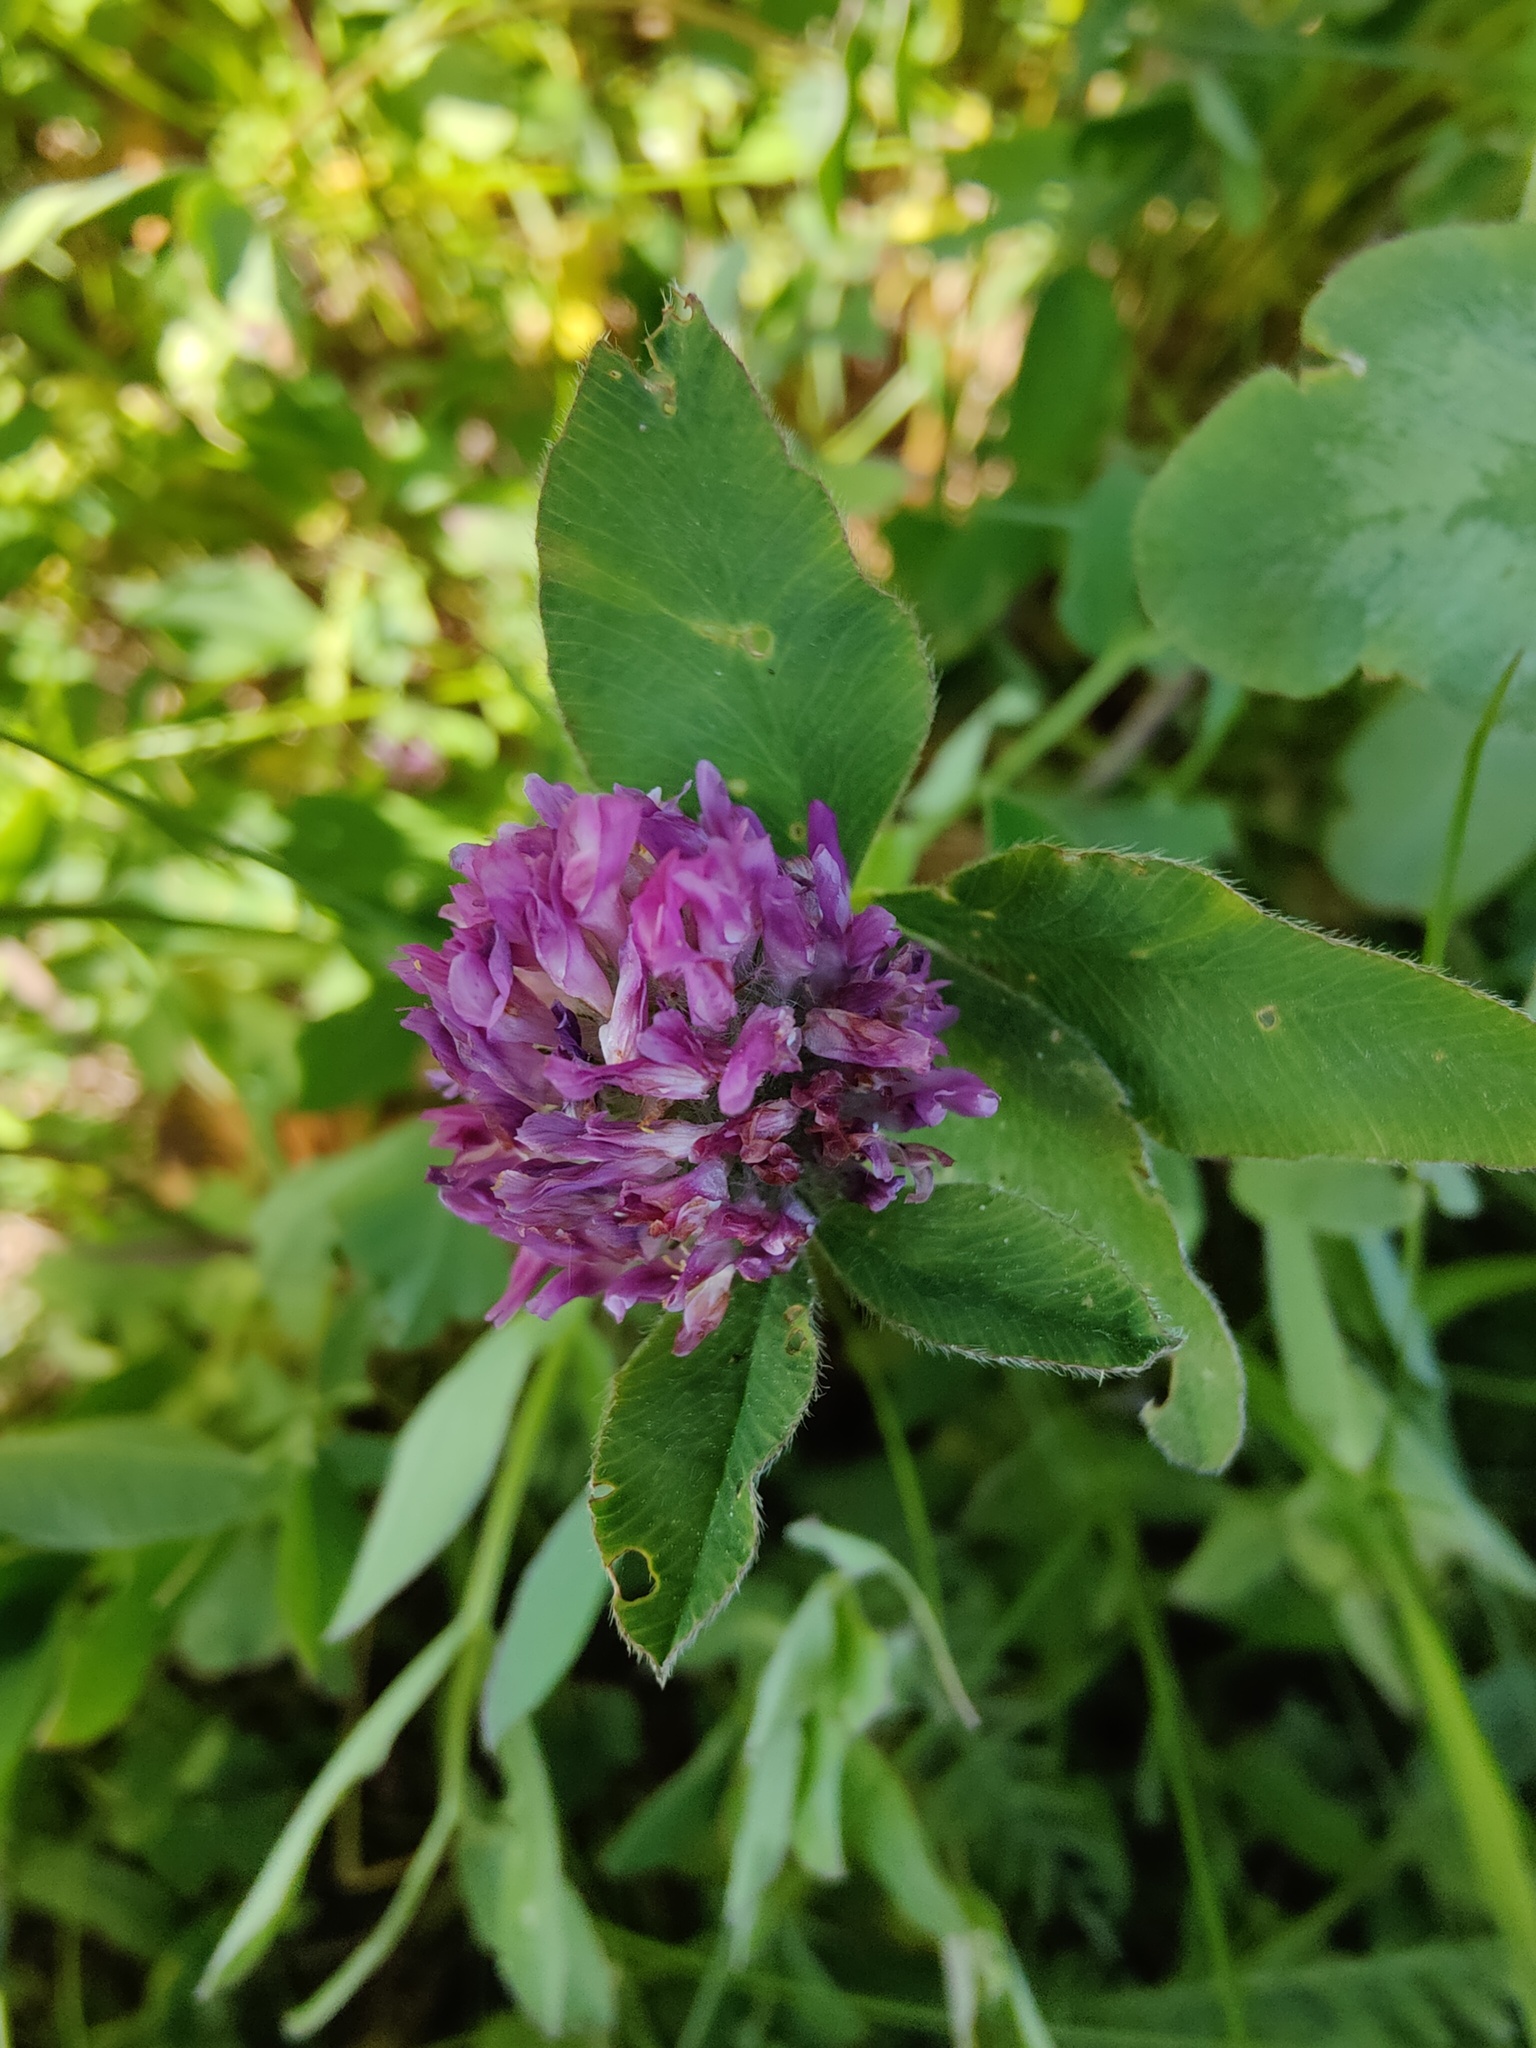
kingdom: Plantae
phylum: Tracheophyta
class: Magnoliopsida
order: Fabales
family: Fabaceae
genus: Trifolium
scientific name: Trifolium medium
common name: Zigzag clover
